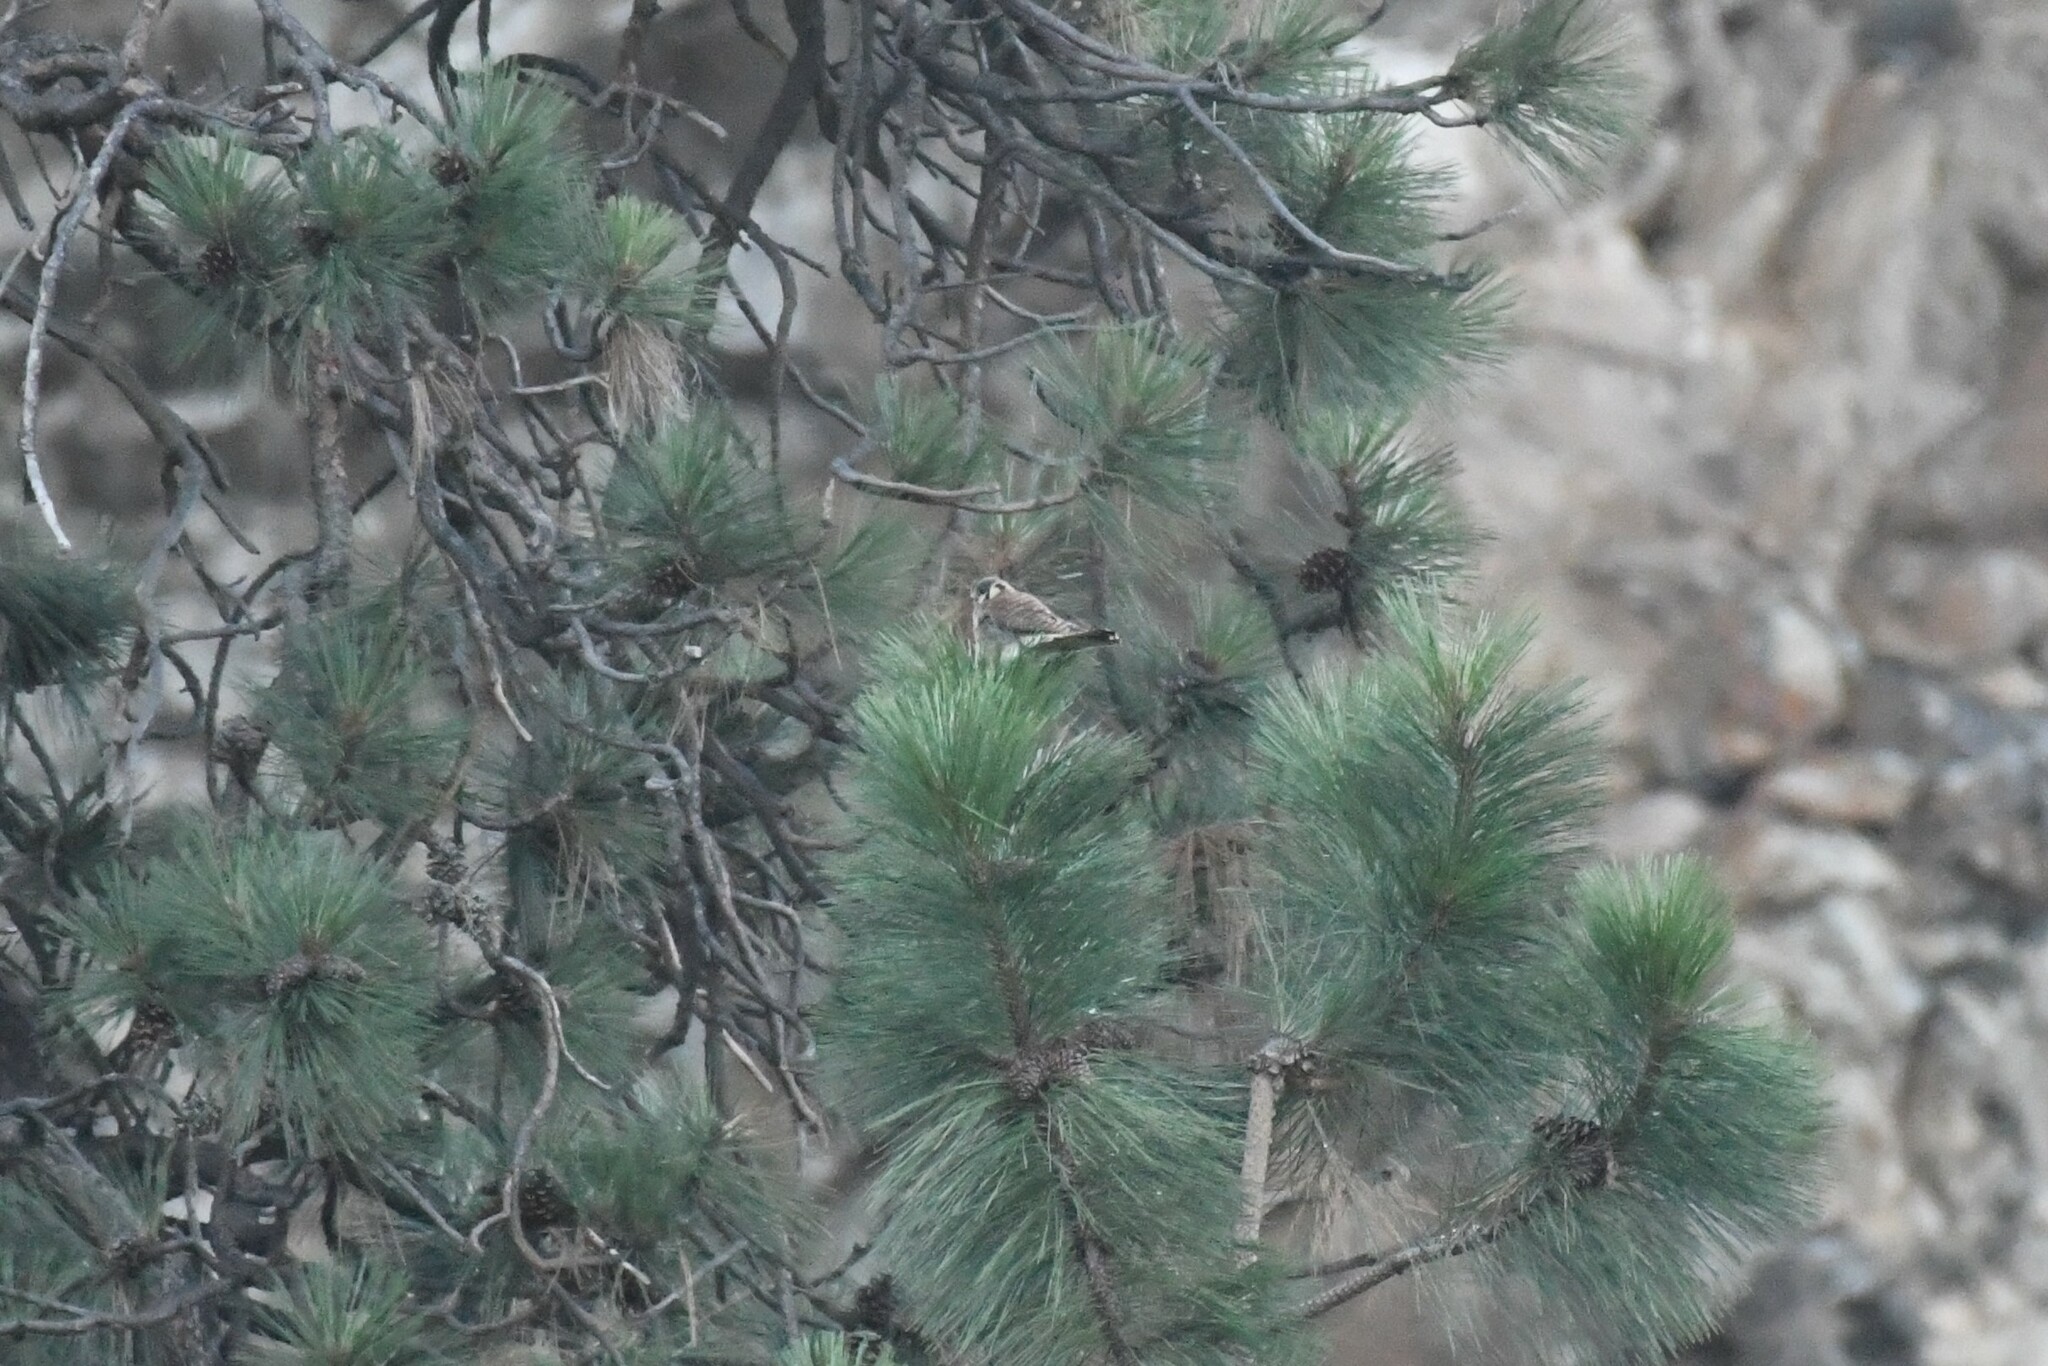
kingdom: Animalia
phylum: Chordata
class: Aves
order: Falconiformes
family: Falconidae
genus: Falco
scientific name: Falco sparverius
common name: American kestrel
